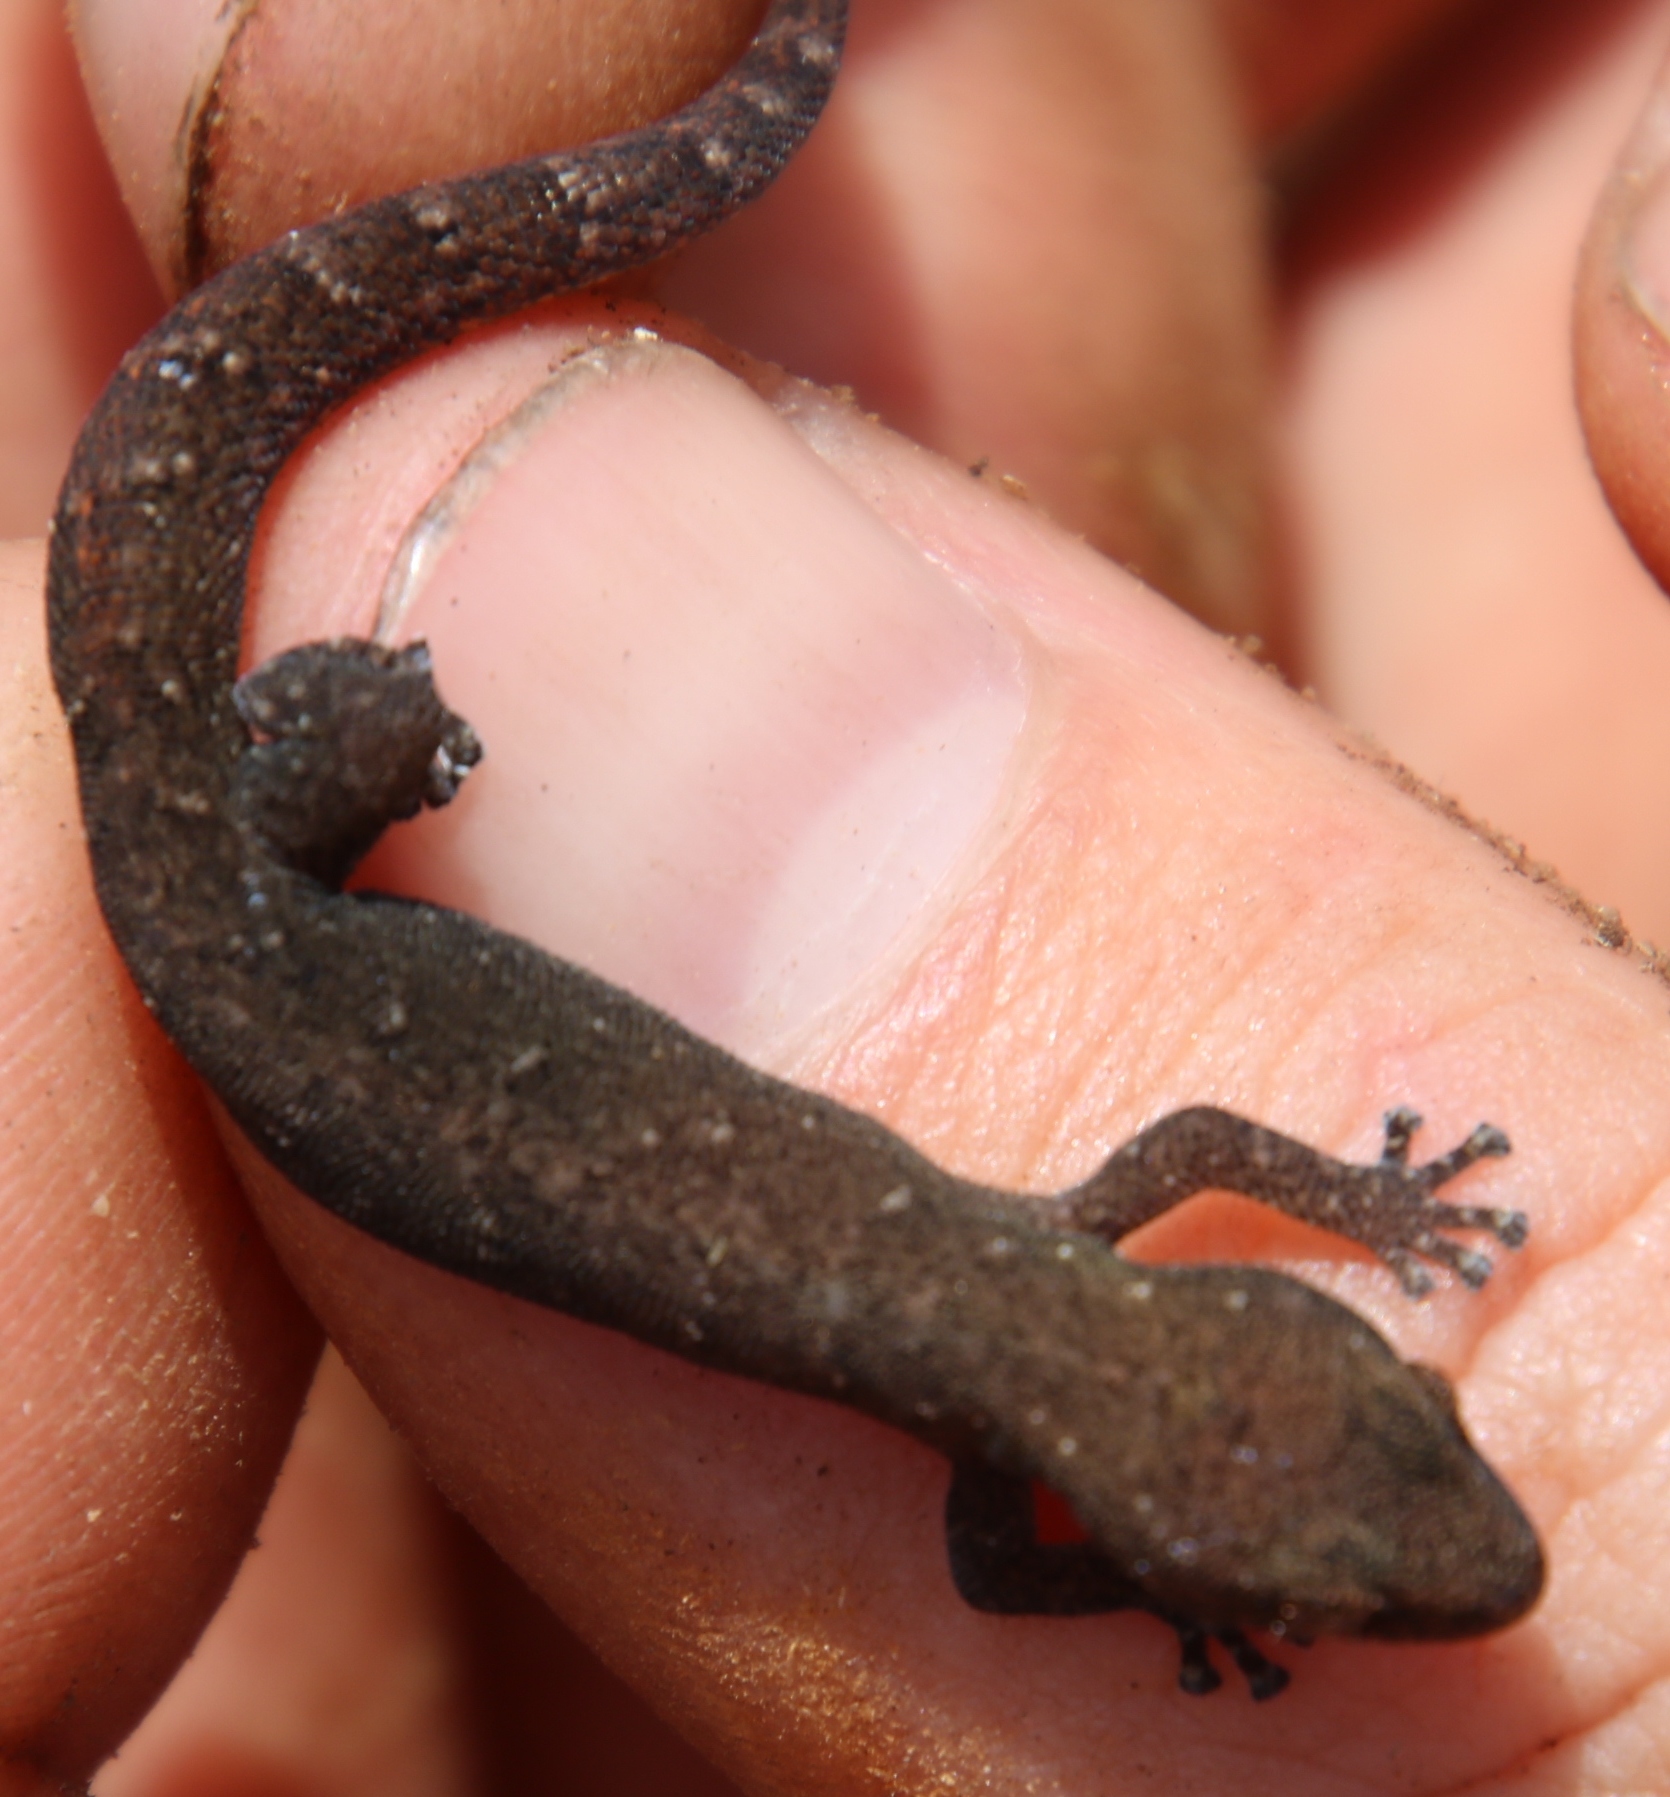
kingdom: Animalia
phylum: Chordata
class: Squamata
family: Gekkonidae
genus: Afrogecko
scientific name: Afrogecko porphyreus
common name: Marbled leaf-toed gecko
